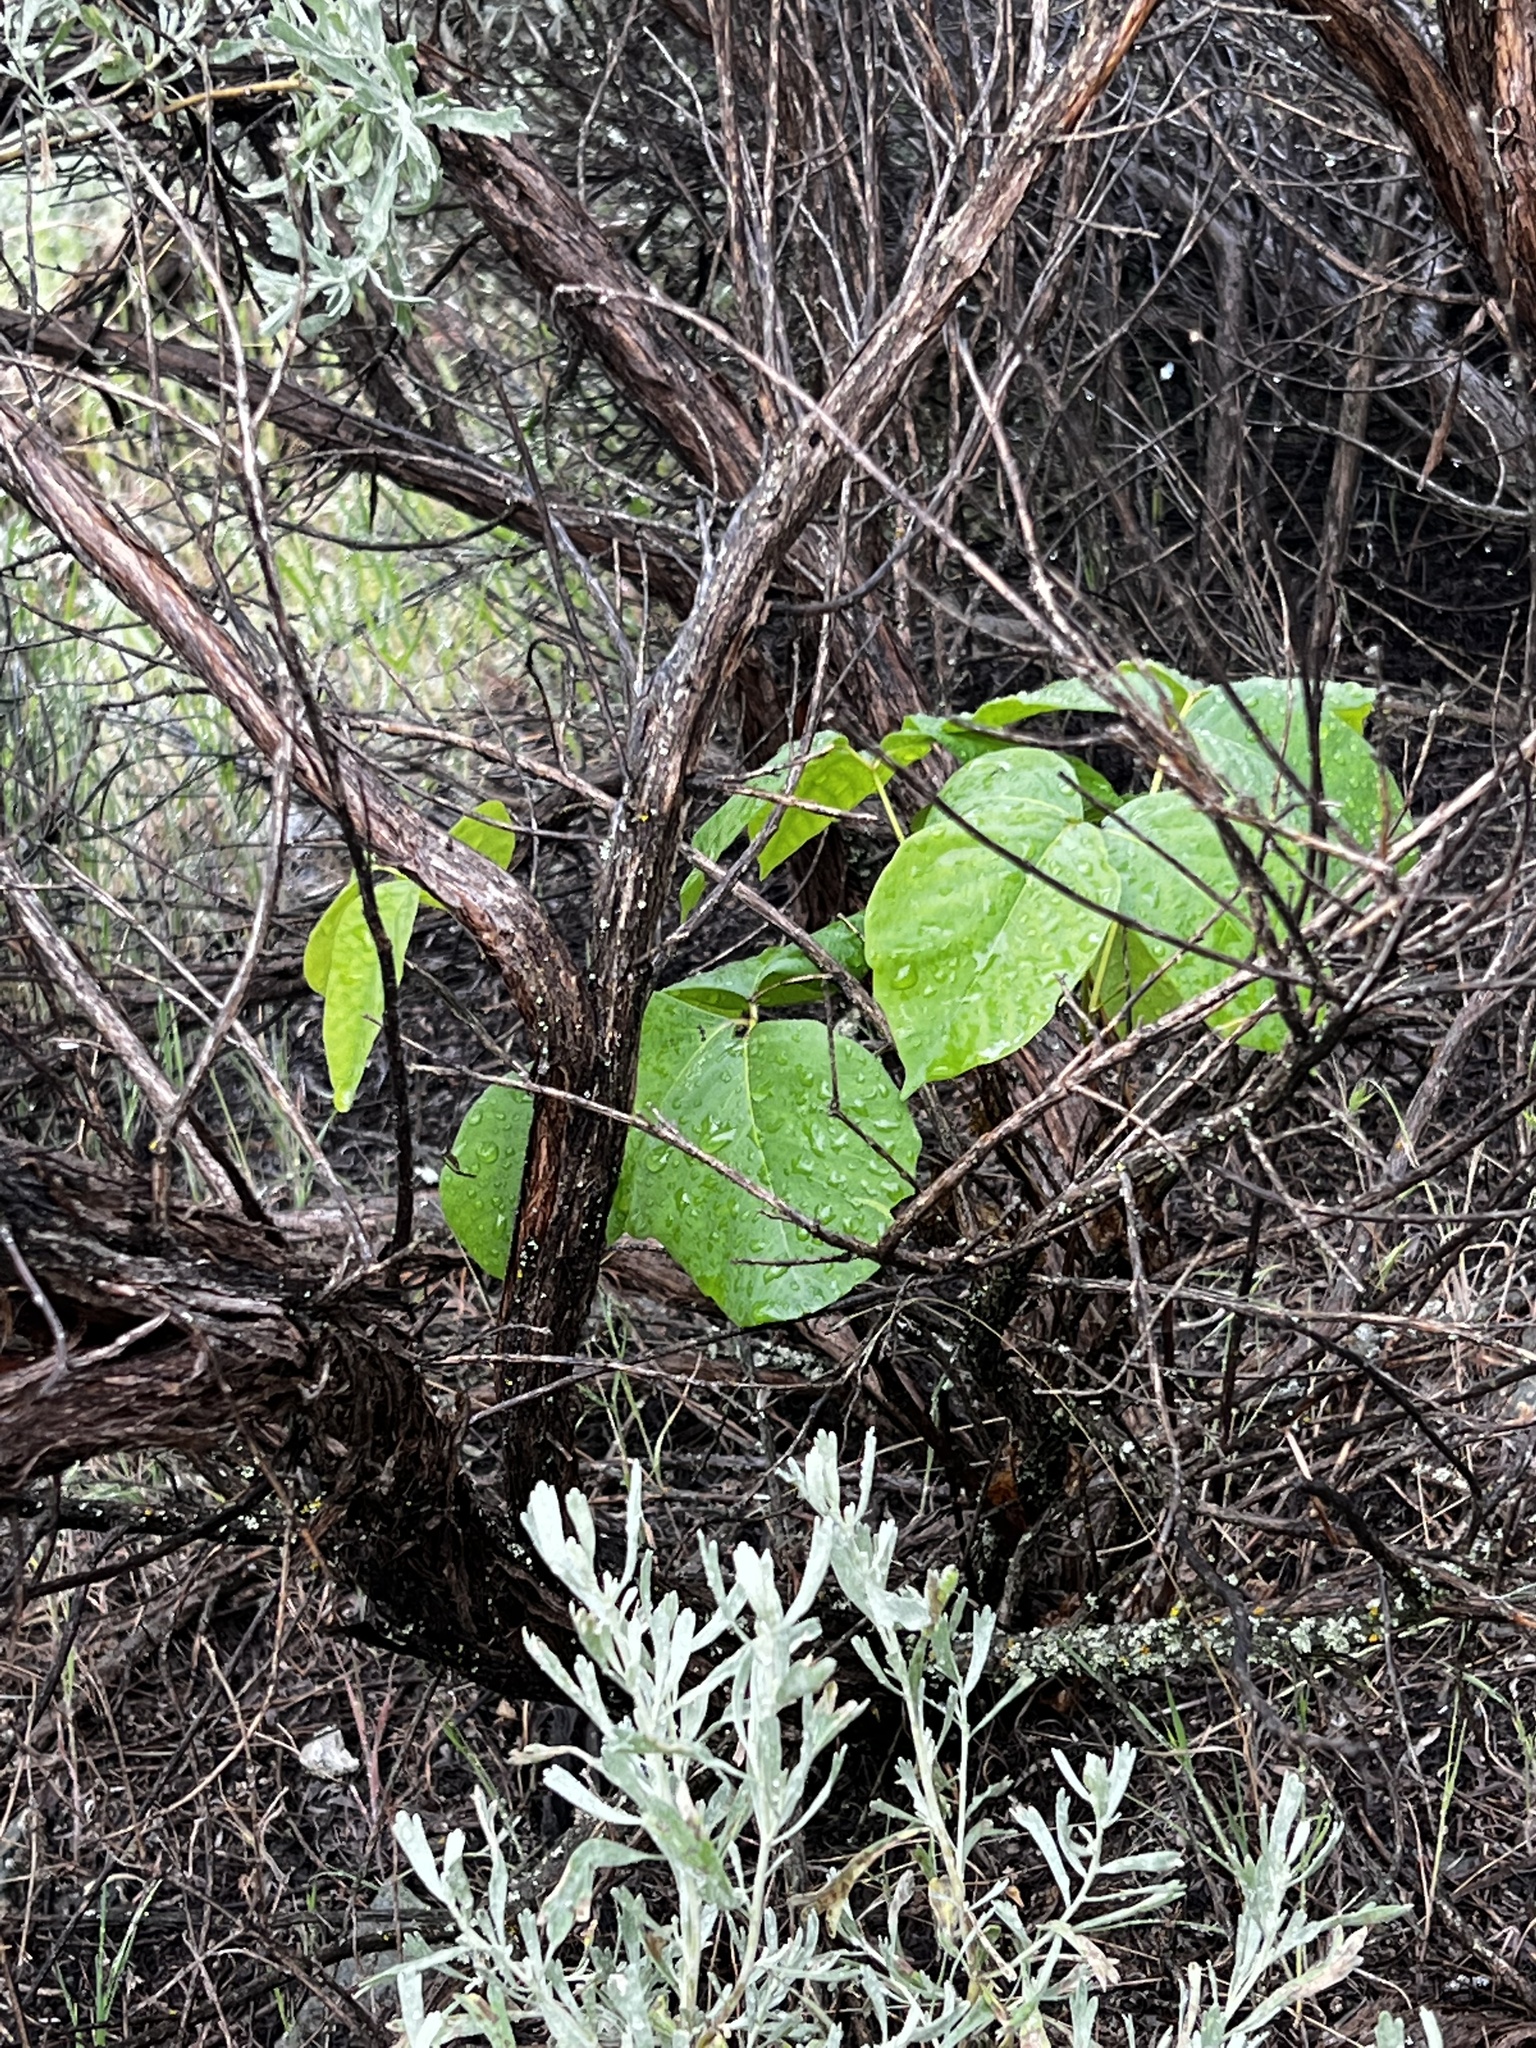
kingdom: Plantae
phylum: Tracheophyta
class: Magnoliopsida
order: Sapindales
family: Anacardiaceae
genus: Toxicodendron
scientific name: Toxicodendron rydbergii
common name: Rydberg's poison-ivy
